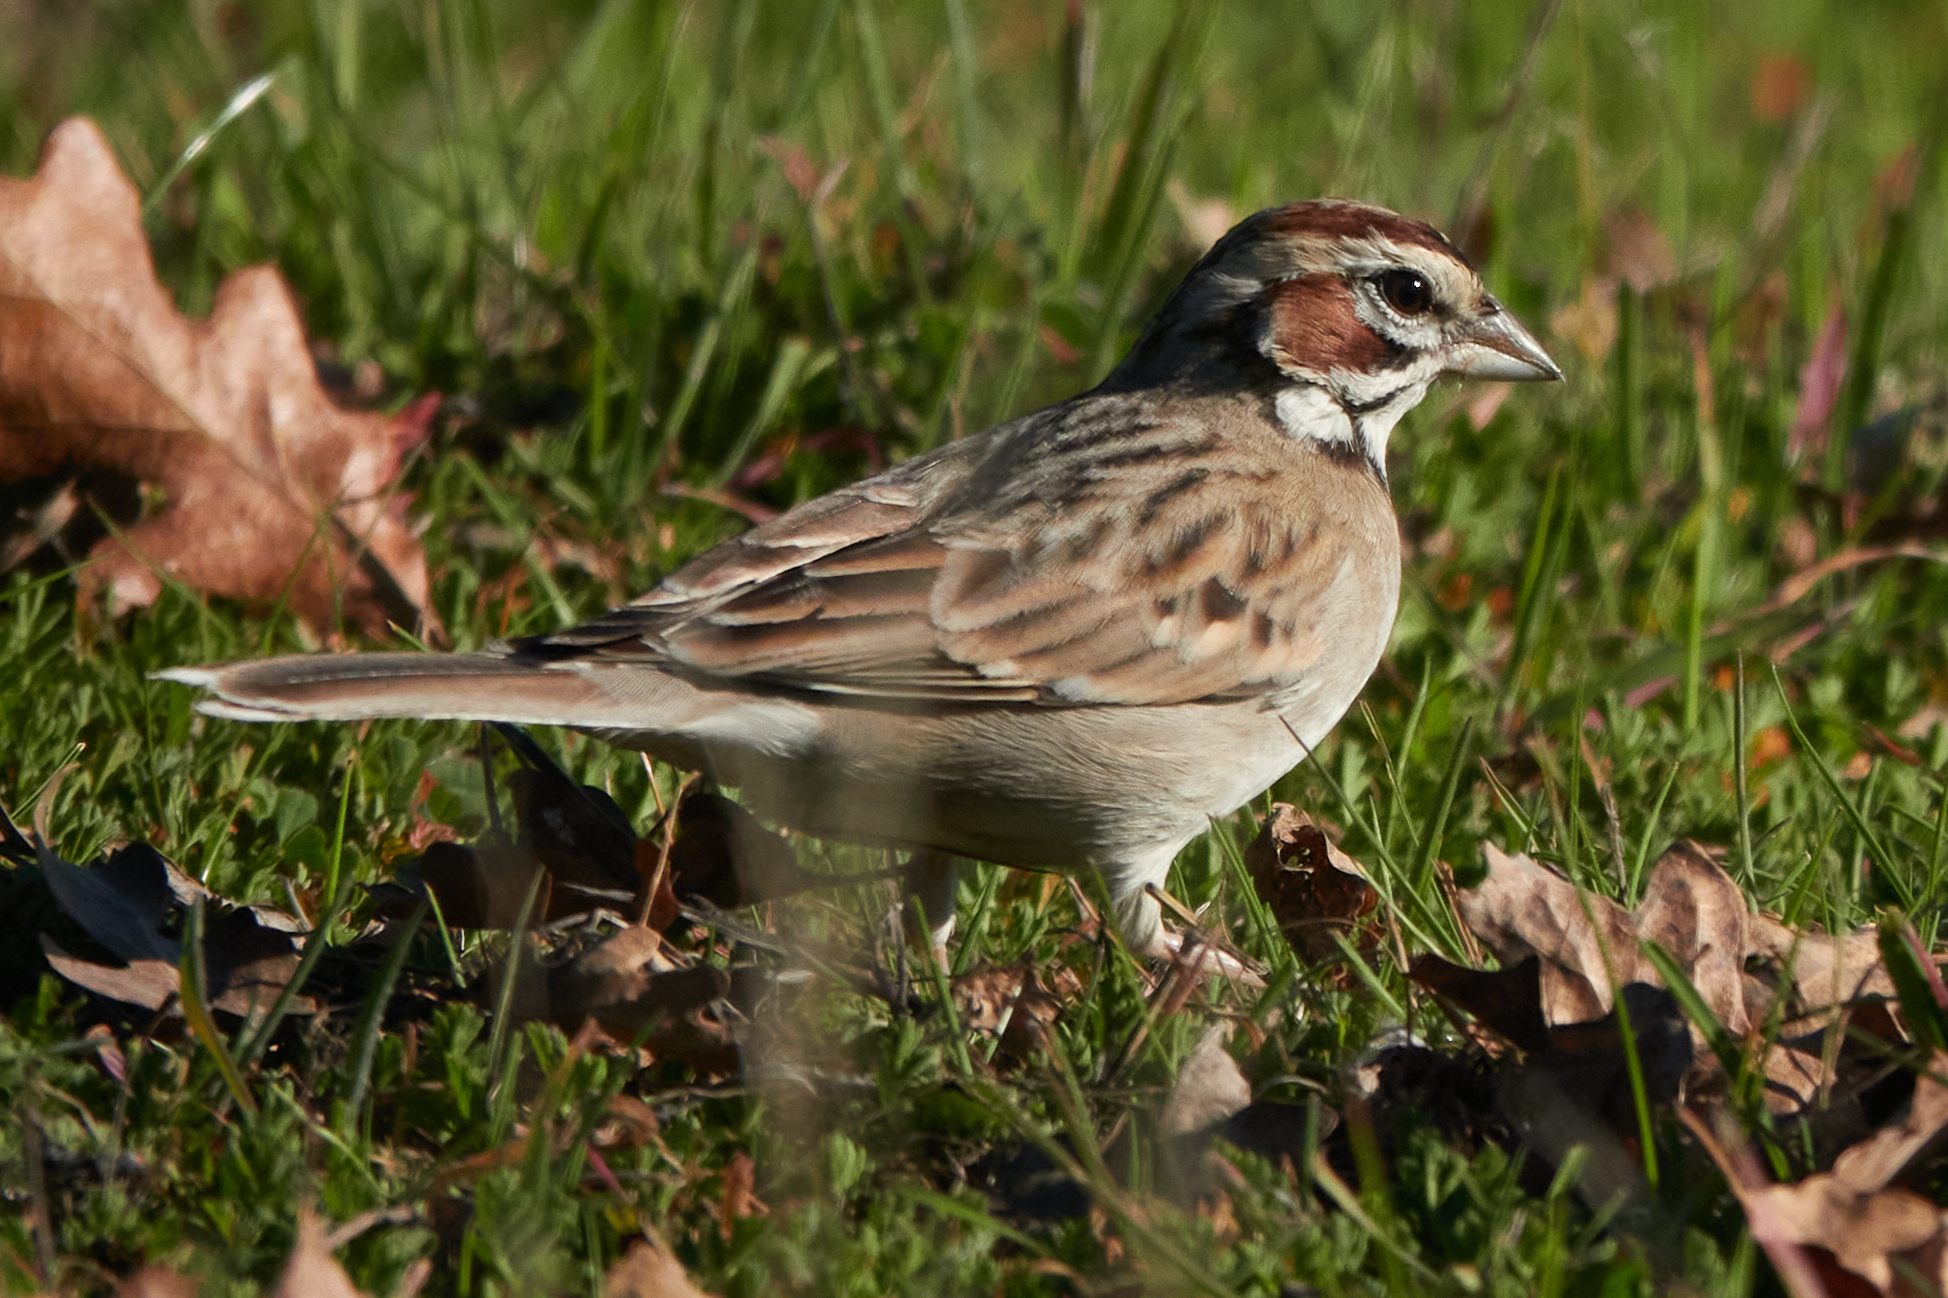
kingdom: Animalia
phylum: Chordata
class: Aves
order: Passeriformes
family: Passerellidae
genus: Chondestes
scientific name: Chondestes grammacus
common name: Lark sparrow
